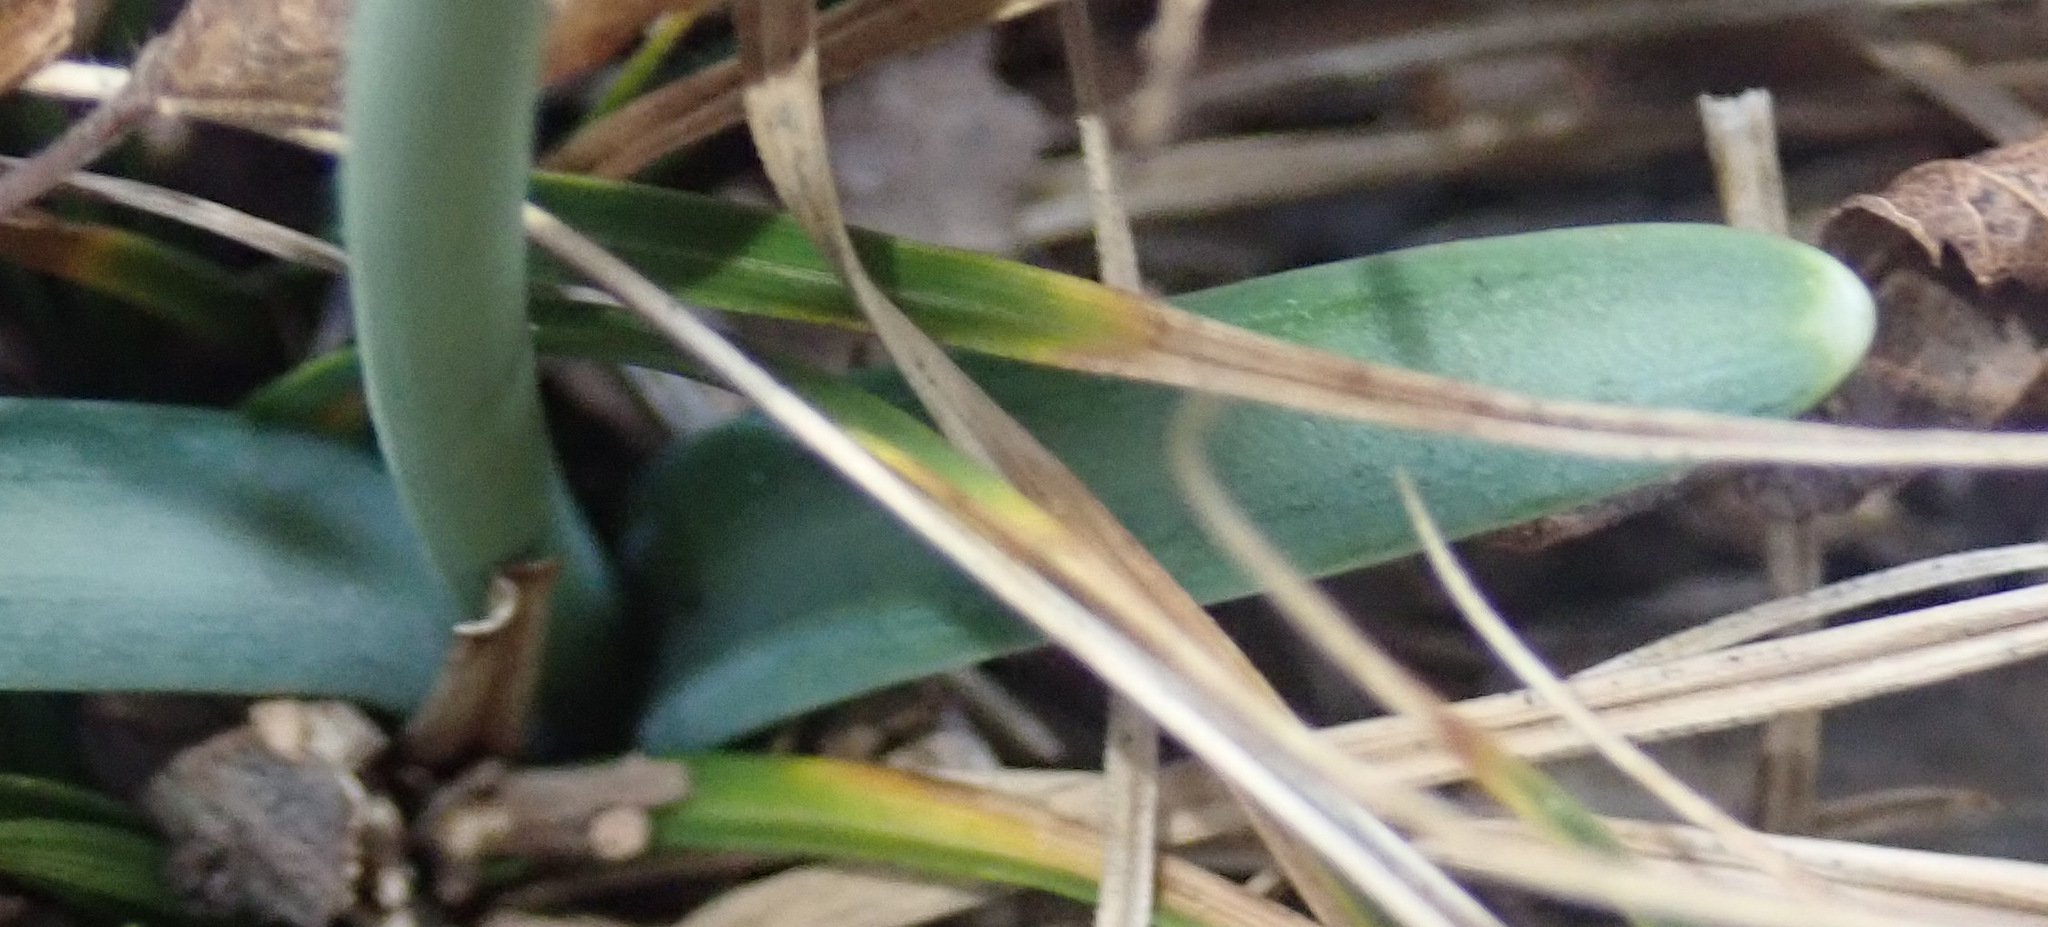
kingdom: Plantae
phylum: Tracheophyta
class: Liliopsida
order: Asparagales
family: Amaryllidaceae
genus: Galanthus
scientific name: Galanthus nivalis
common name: Snowdrop
